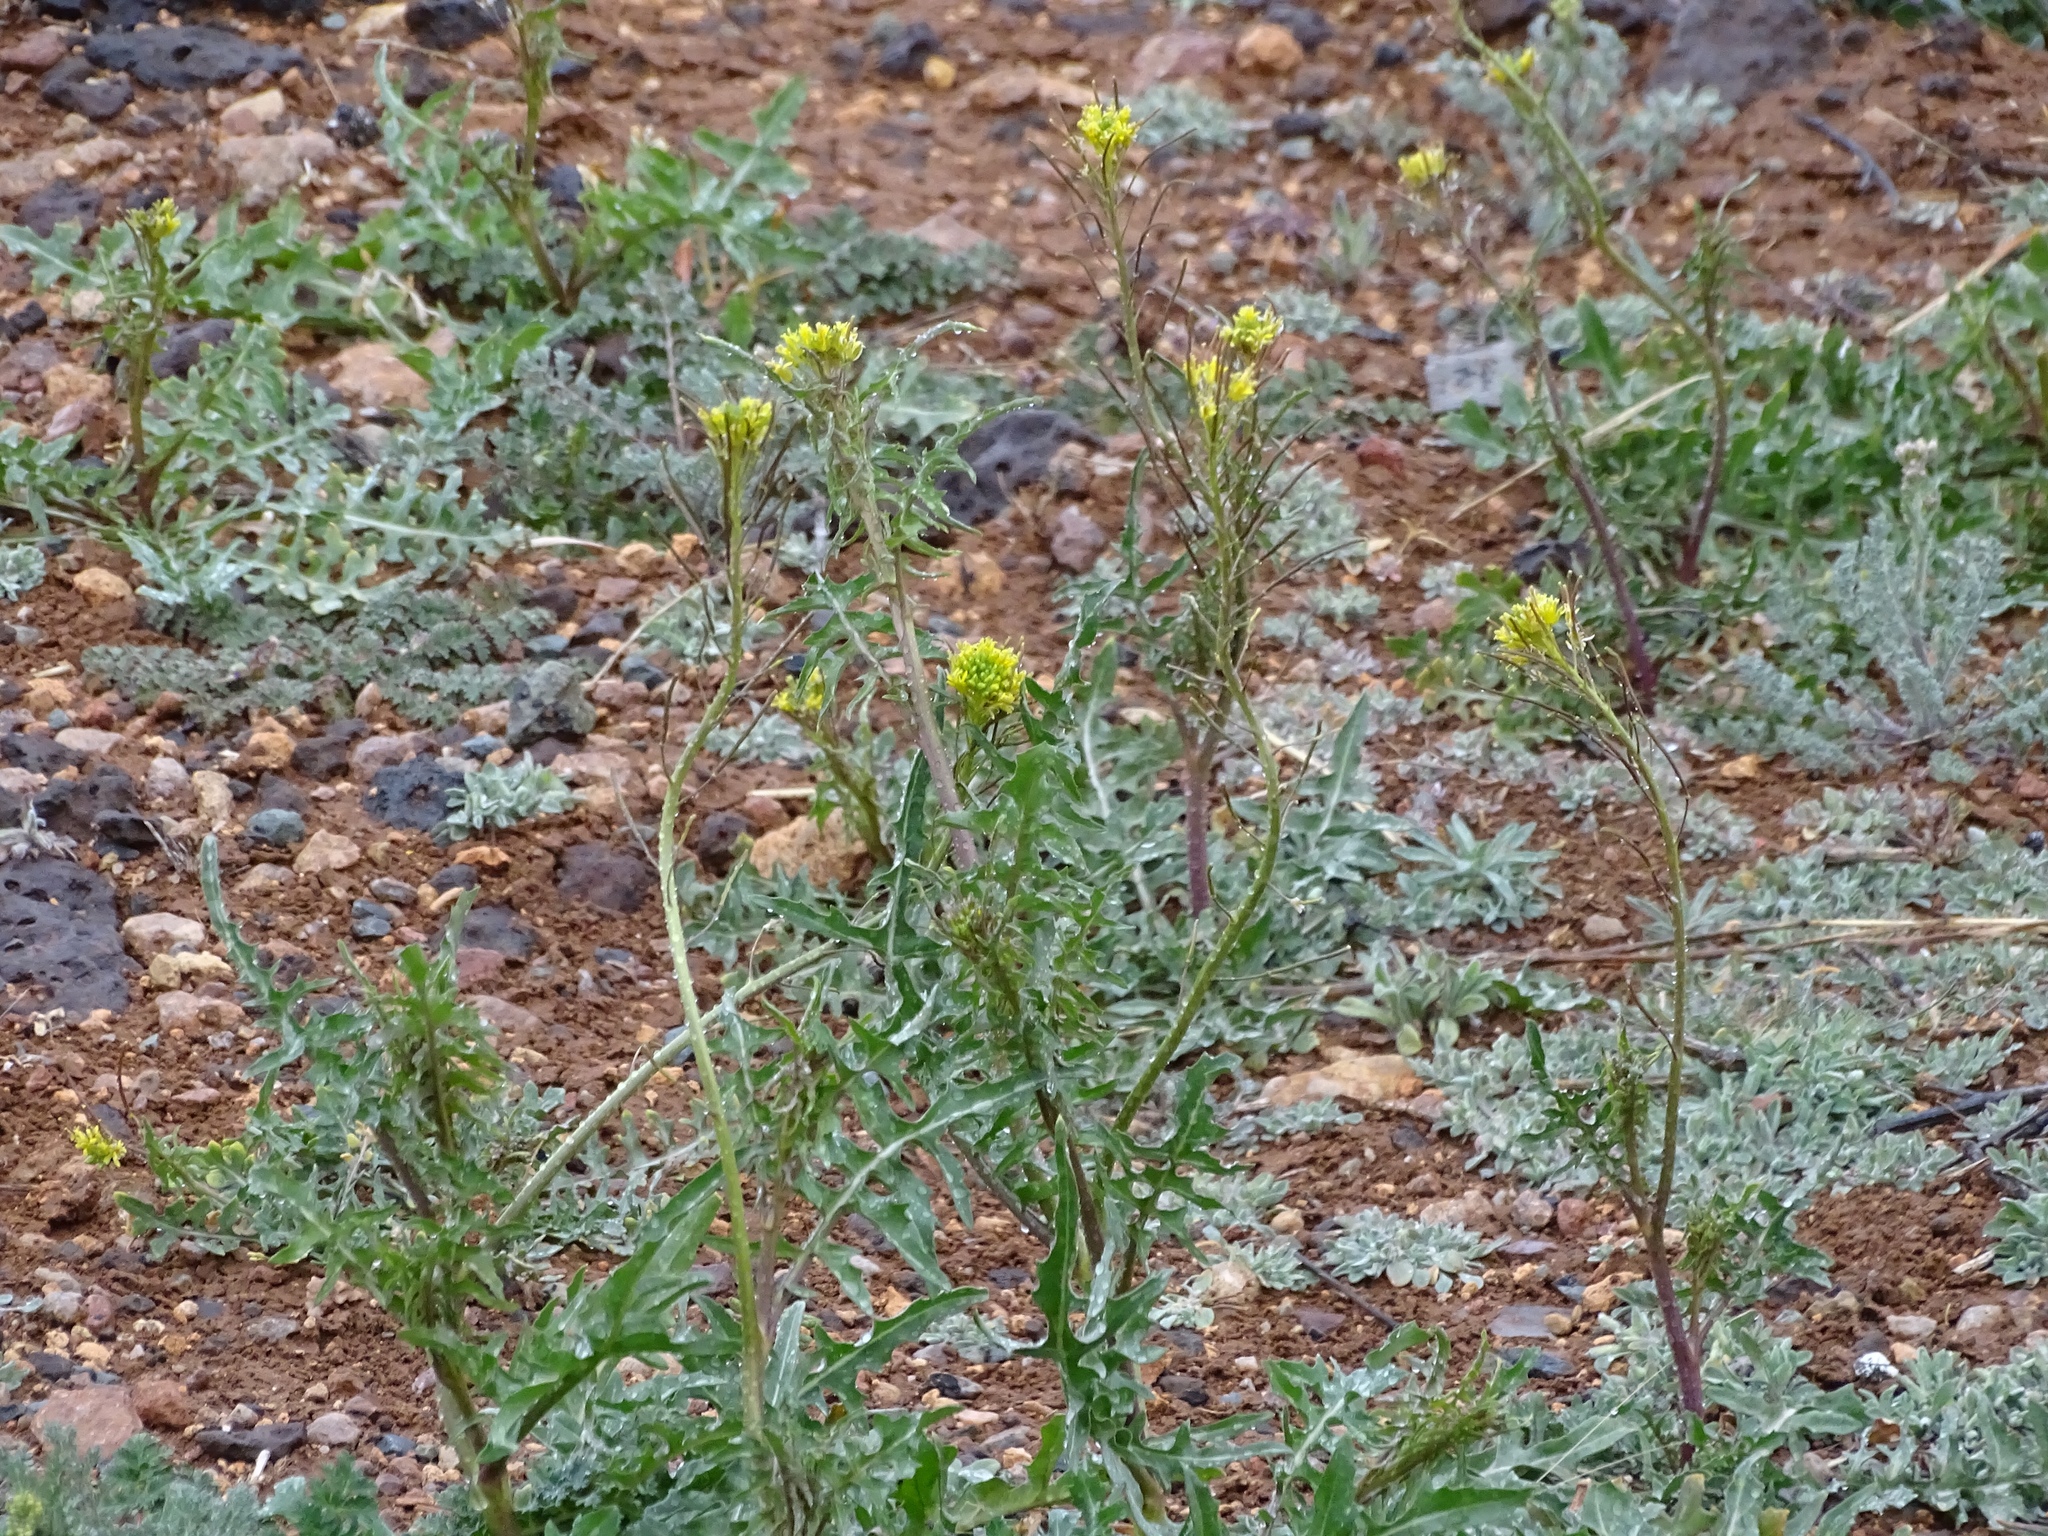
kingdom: Plantae
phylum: Tracheophyta
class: Magnoliopsida
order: Brassicales
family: Brassicaceae
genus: Sisymbrium
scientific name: Sisymbrium irio
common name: London rocket
